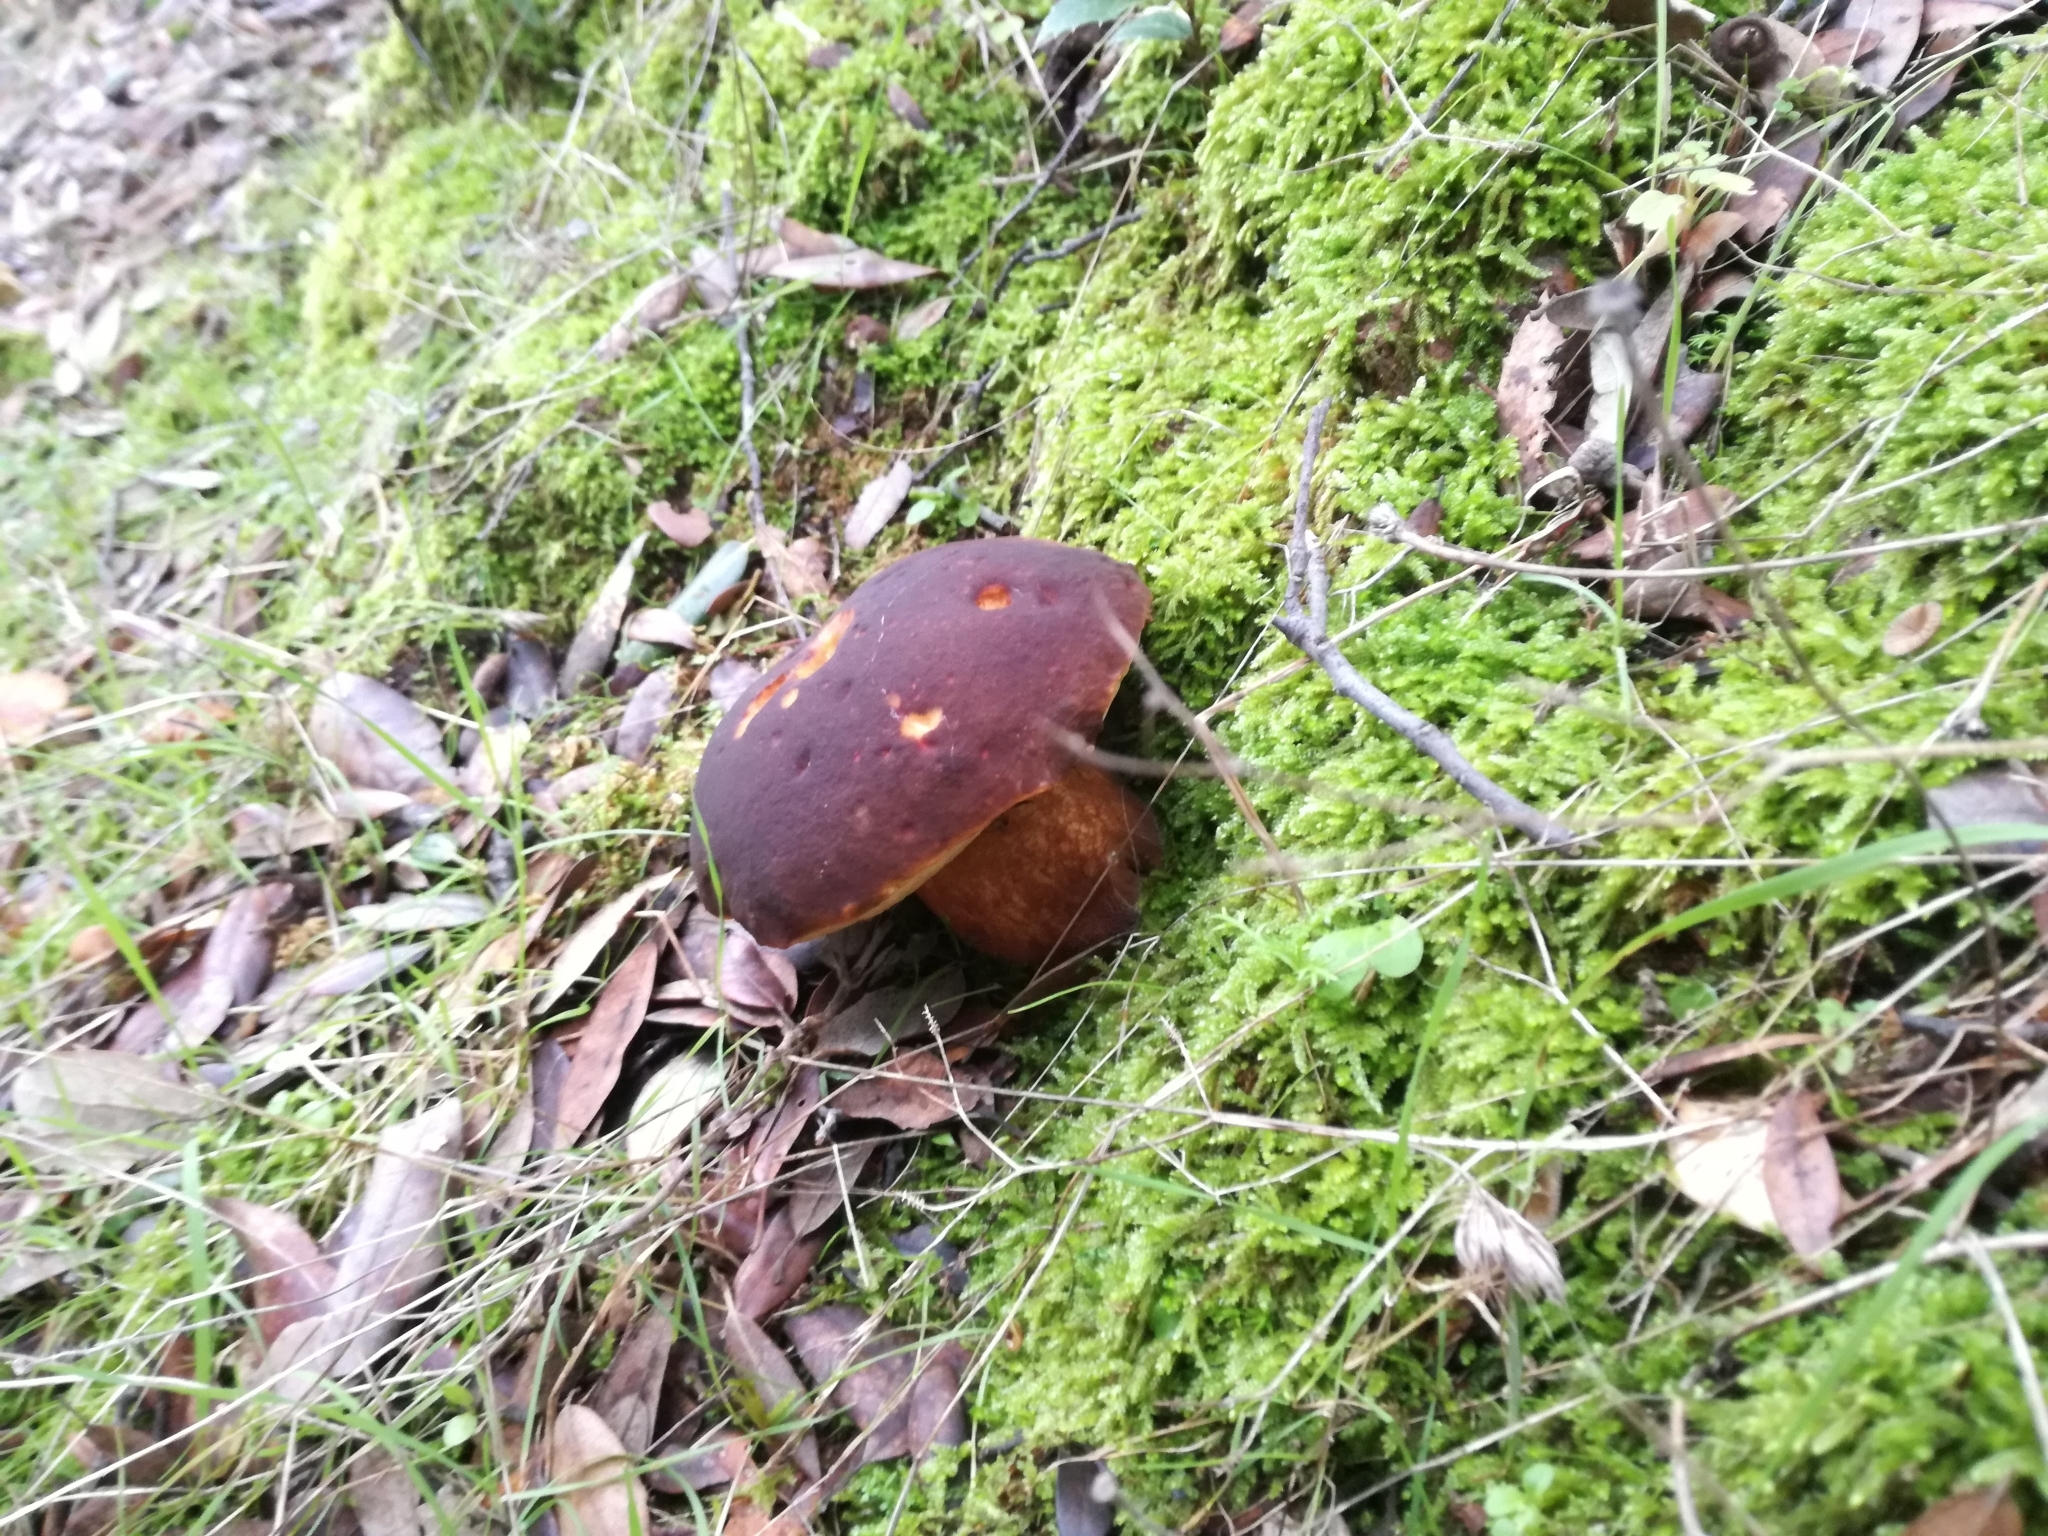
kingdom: Fungi
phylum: Basidiomycota
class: Agaricomycetes
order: Boletales
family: Boletaceae
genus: Boletus
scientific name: Boletus aereus
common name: Bronze bolete
